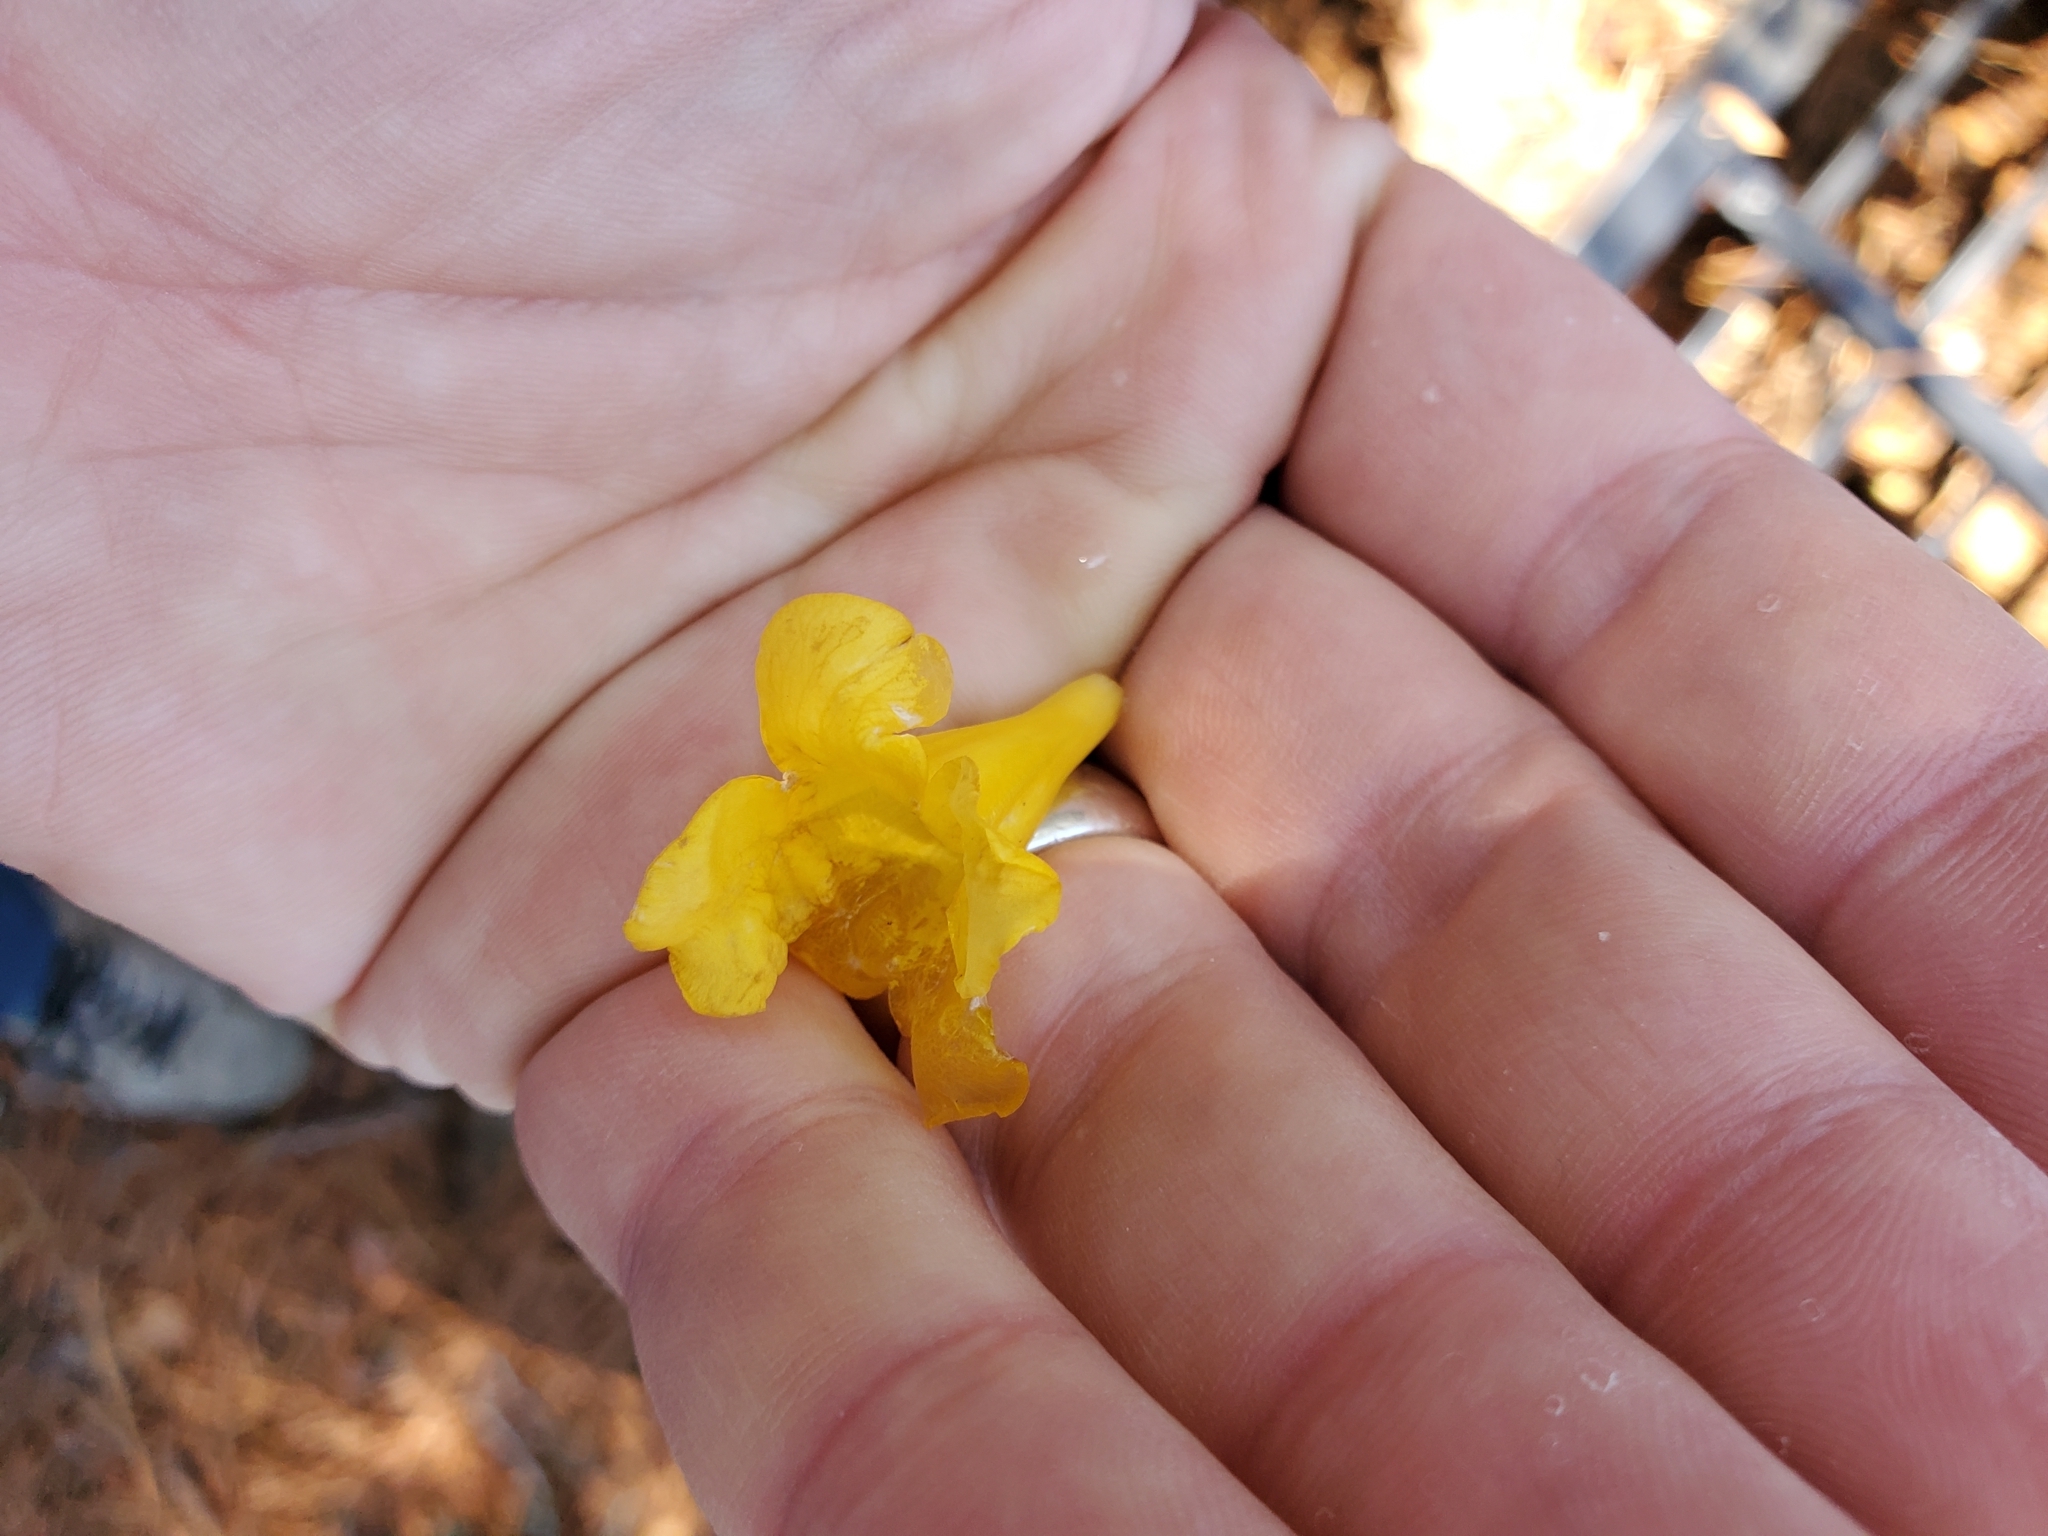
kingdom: Plantae
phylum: Tracheophyta
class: Magnoliopsida
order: Gentianales
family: Gelsemiaceae
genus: Gelsemium
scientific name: Gelsemium sempervirens
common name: Carolina-jasmine
